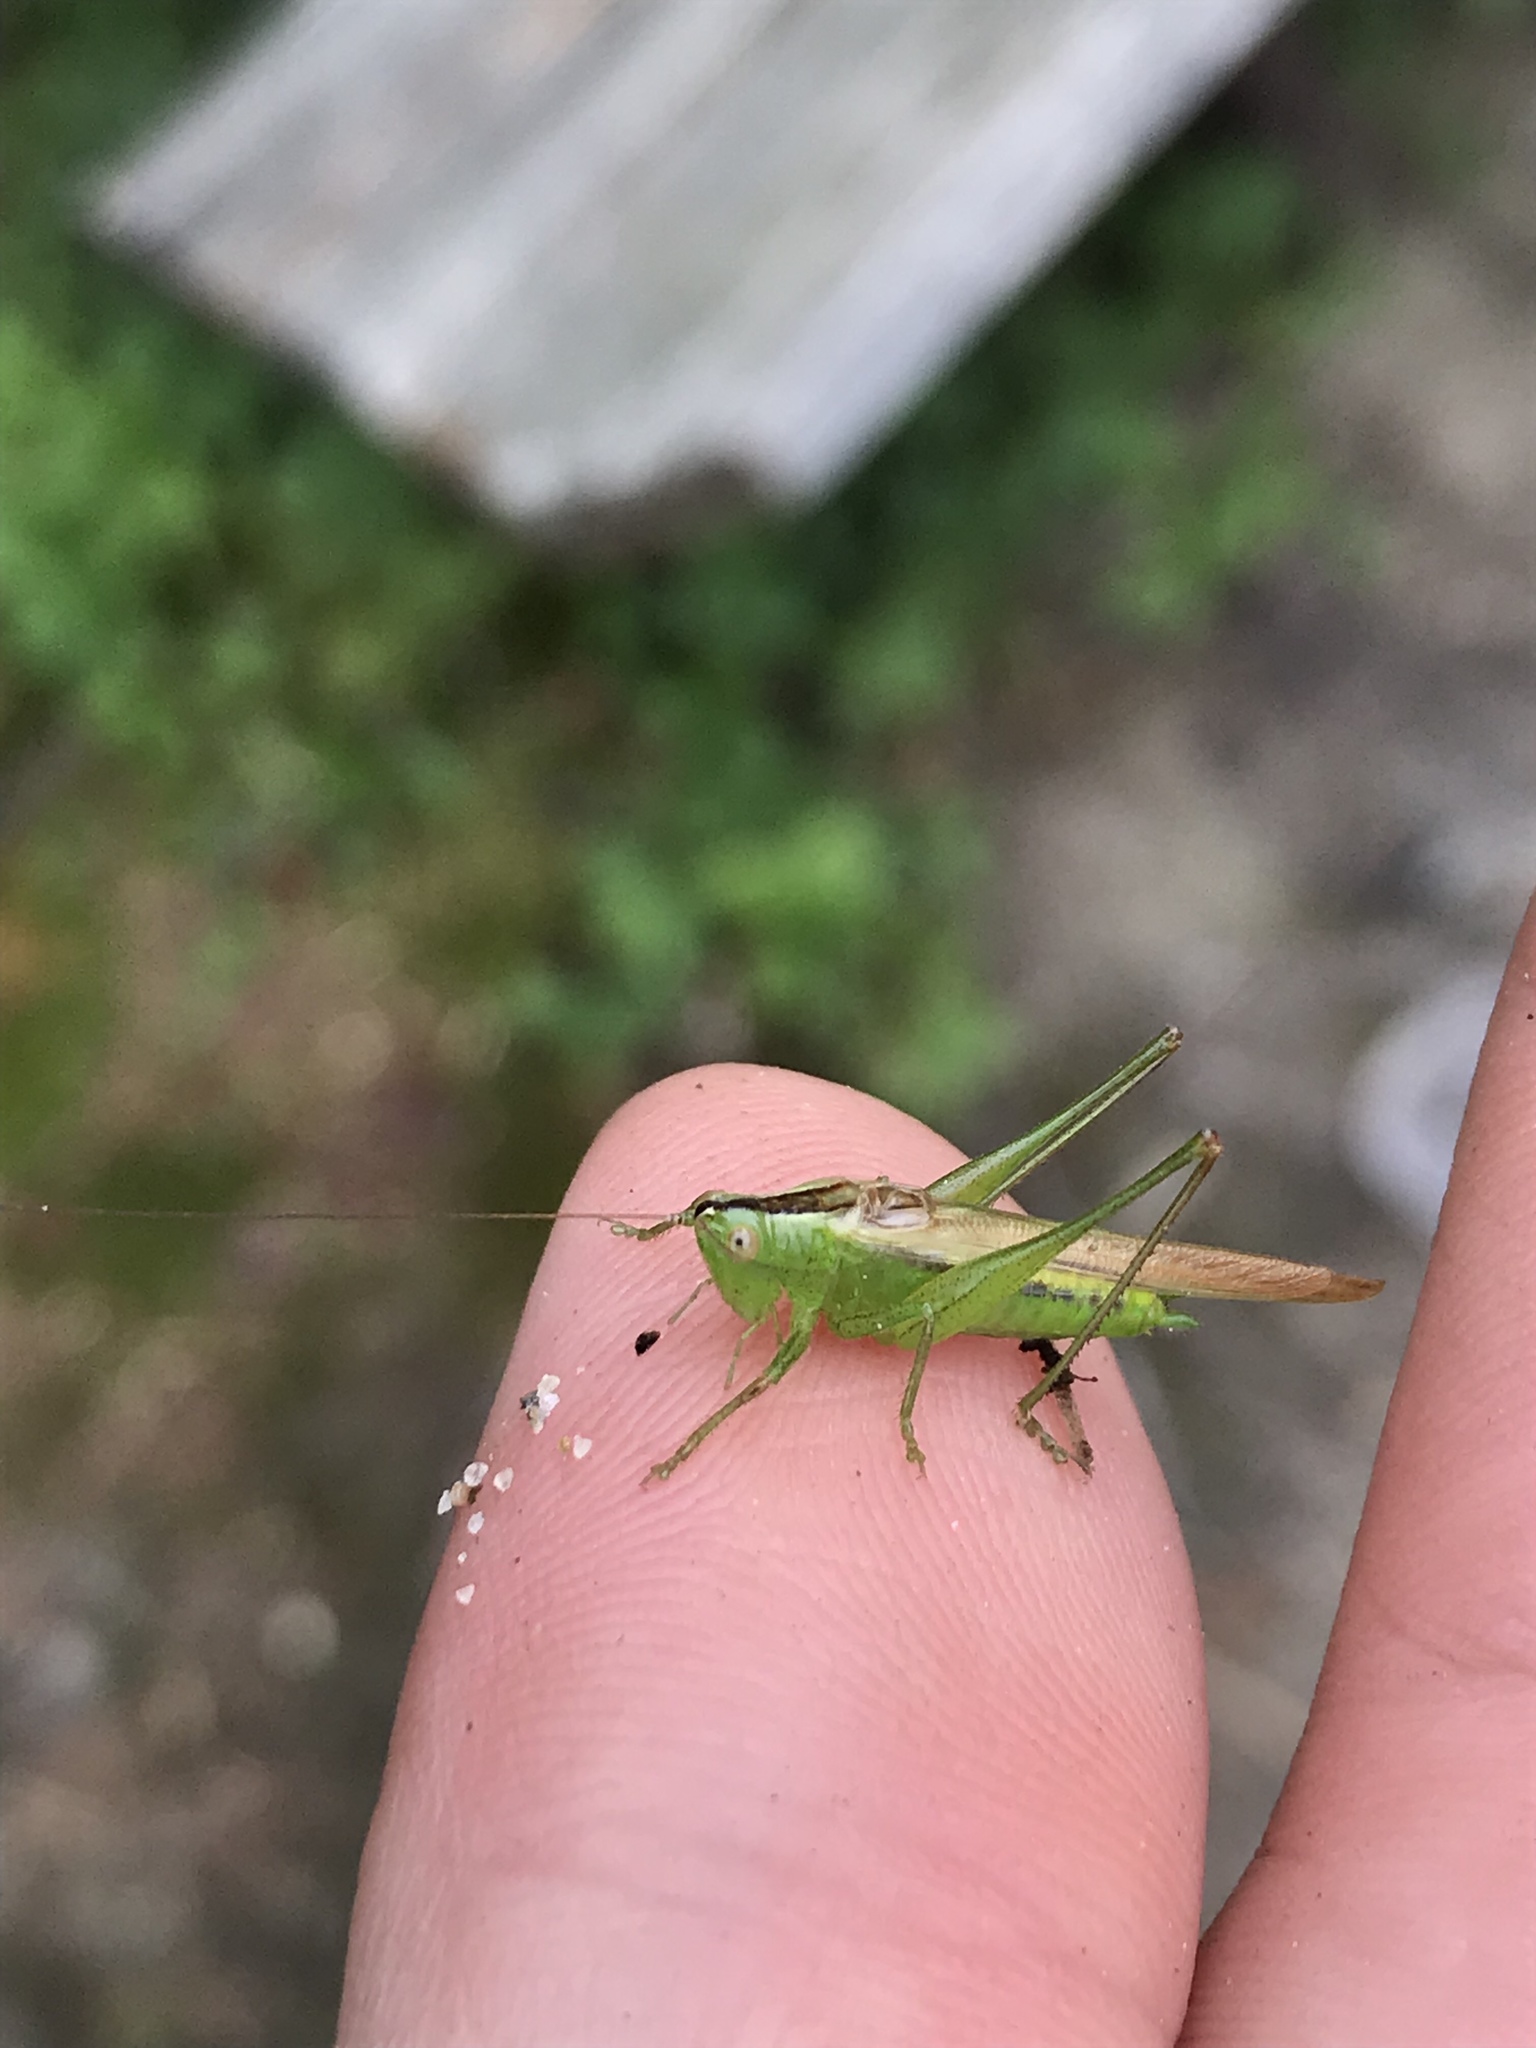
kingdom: Animalia
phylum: Arthropoda
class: Insecta
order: Orthoptera
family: Tettigoniidae
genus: Conocephalus
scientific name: Conocephalus fasciatus
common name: Slender meadow katydid
